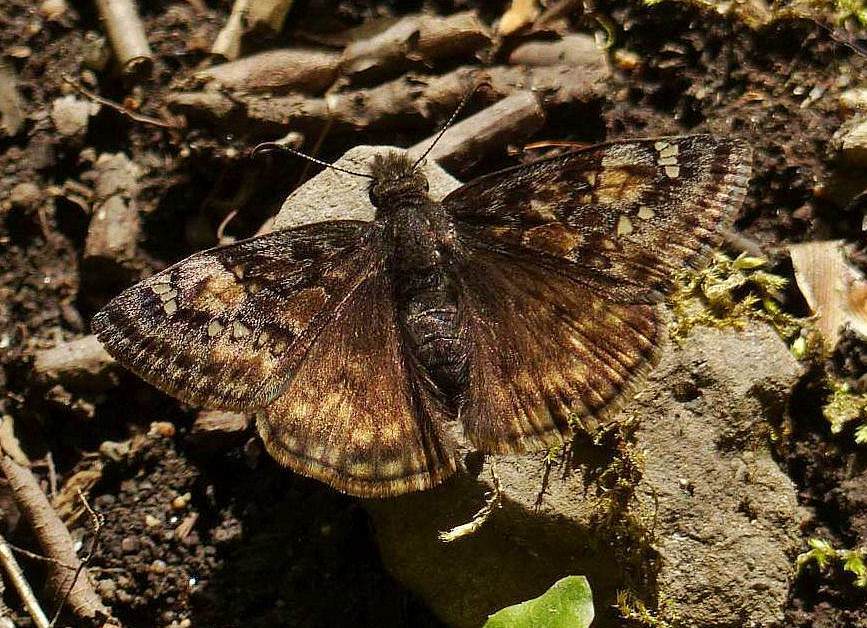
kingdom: Animalia
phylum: Arthropoda
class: Insecta
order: Lepidoptera
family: Hesperiidae
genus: Erynnis
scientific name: Erynnis juvenalis
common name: Juvenal's duskywing
